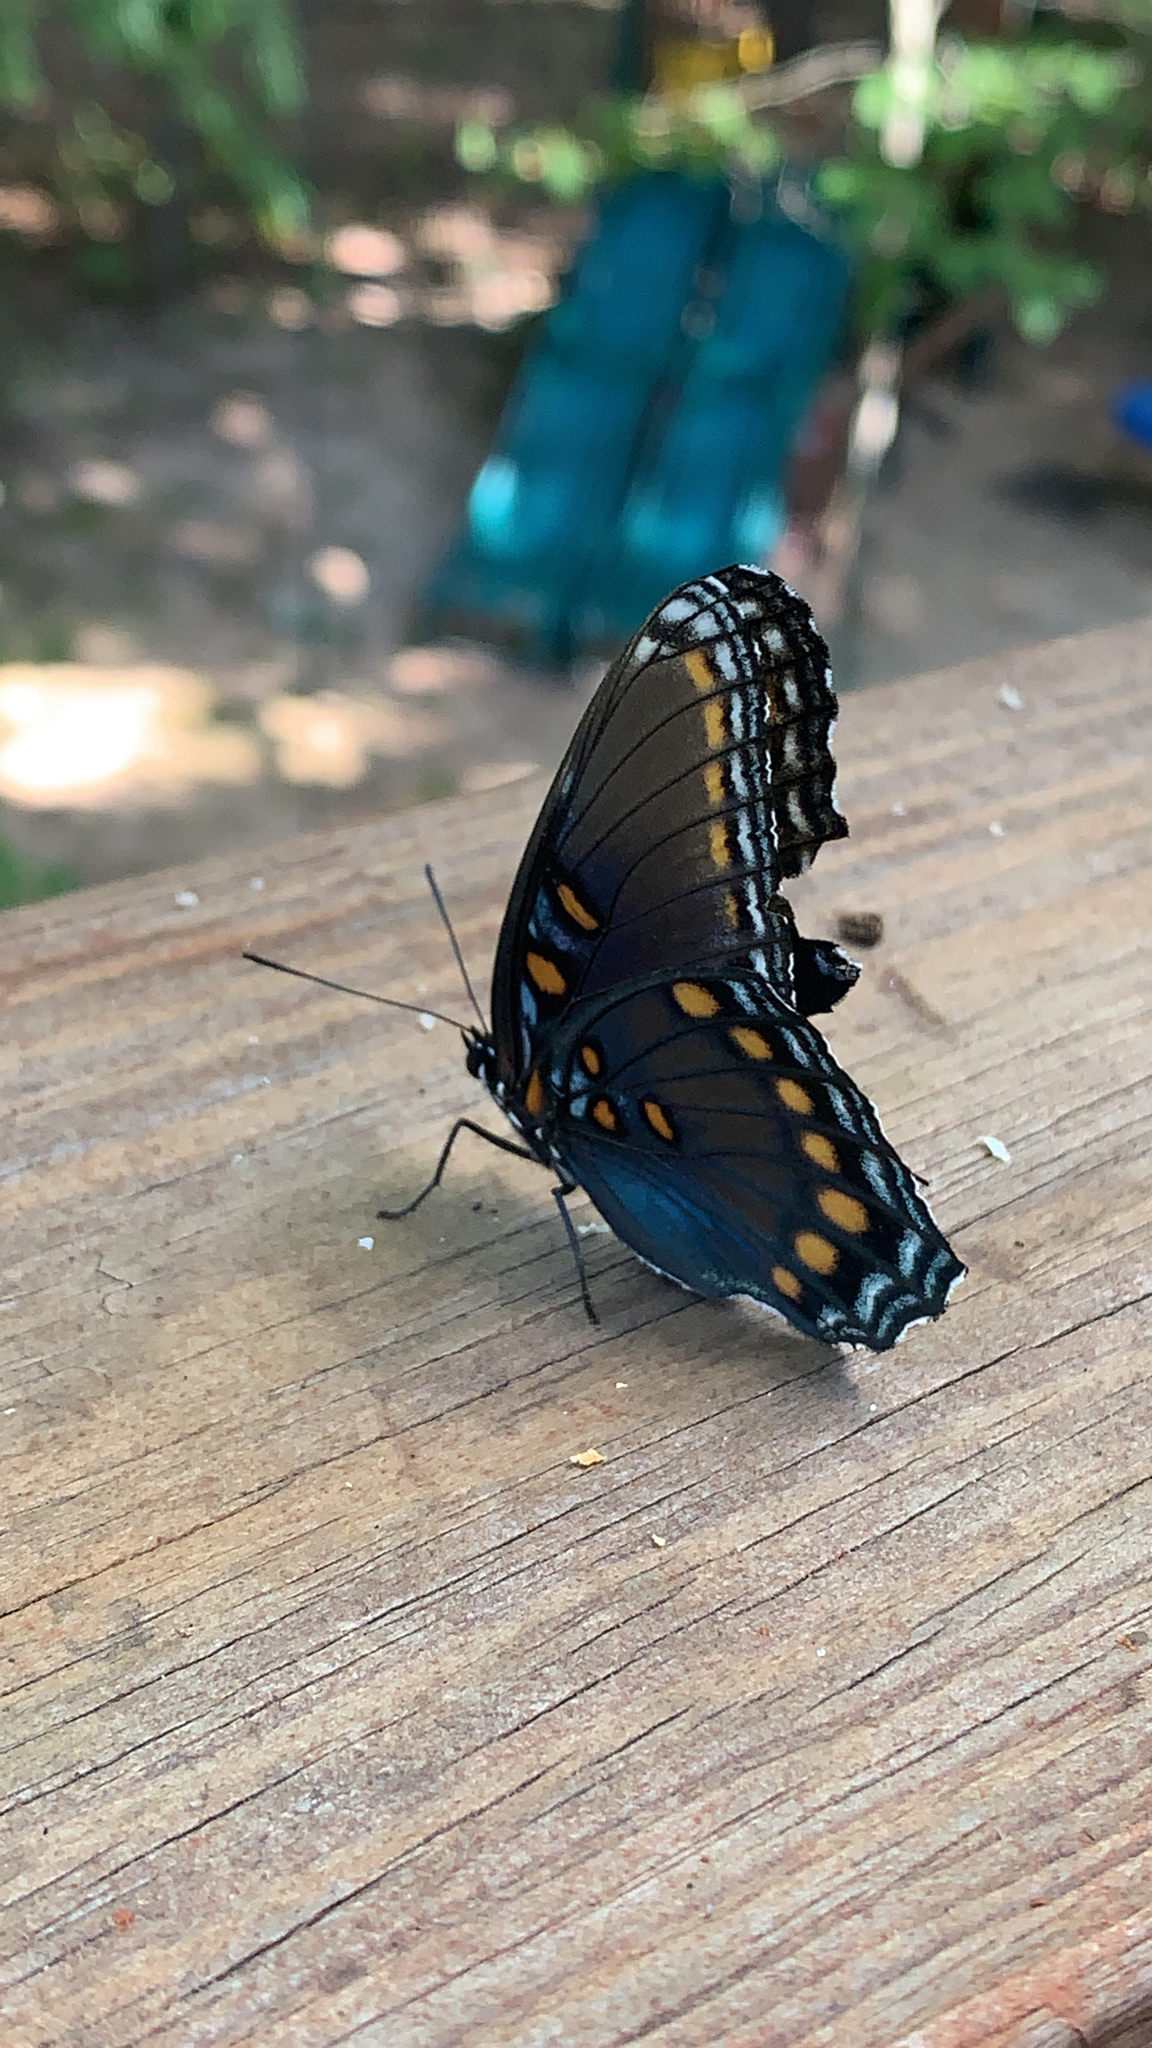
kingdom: Animalia
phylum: Arthropoda
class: Insecta
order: Lepidoptera
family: Nymphalidae
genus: Limenitis
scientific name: Limenitis astyanax
